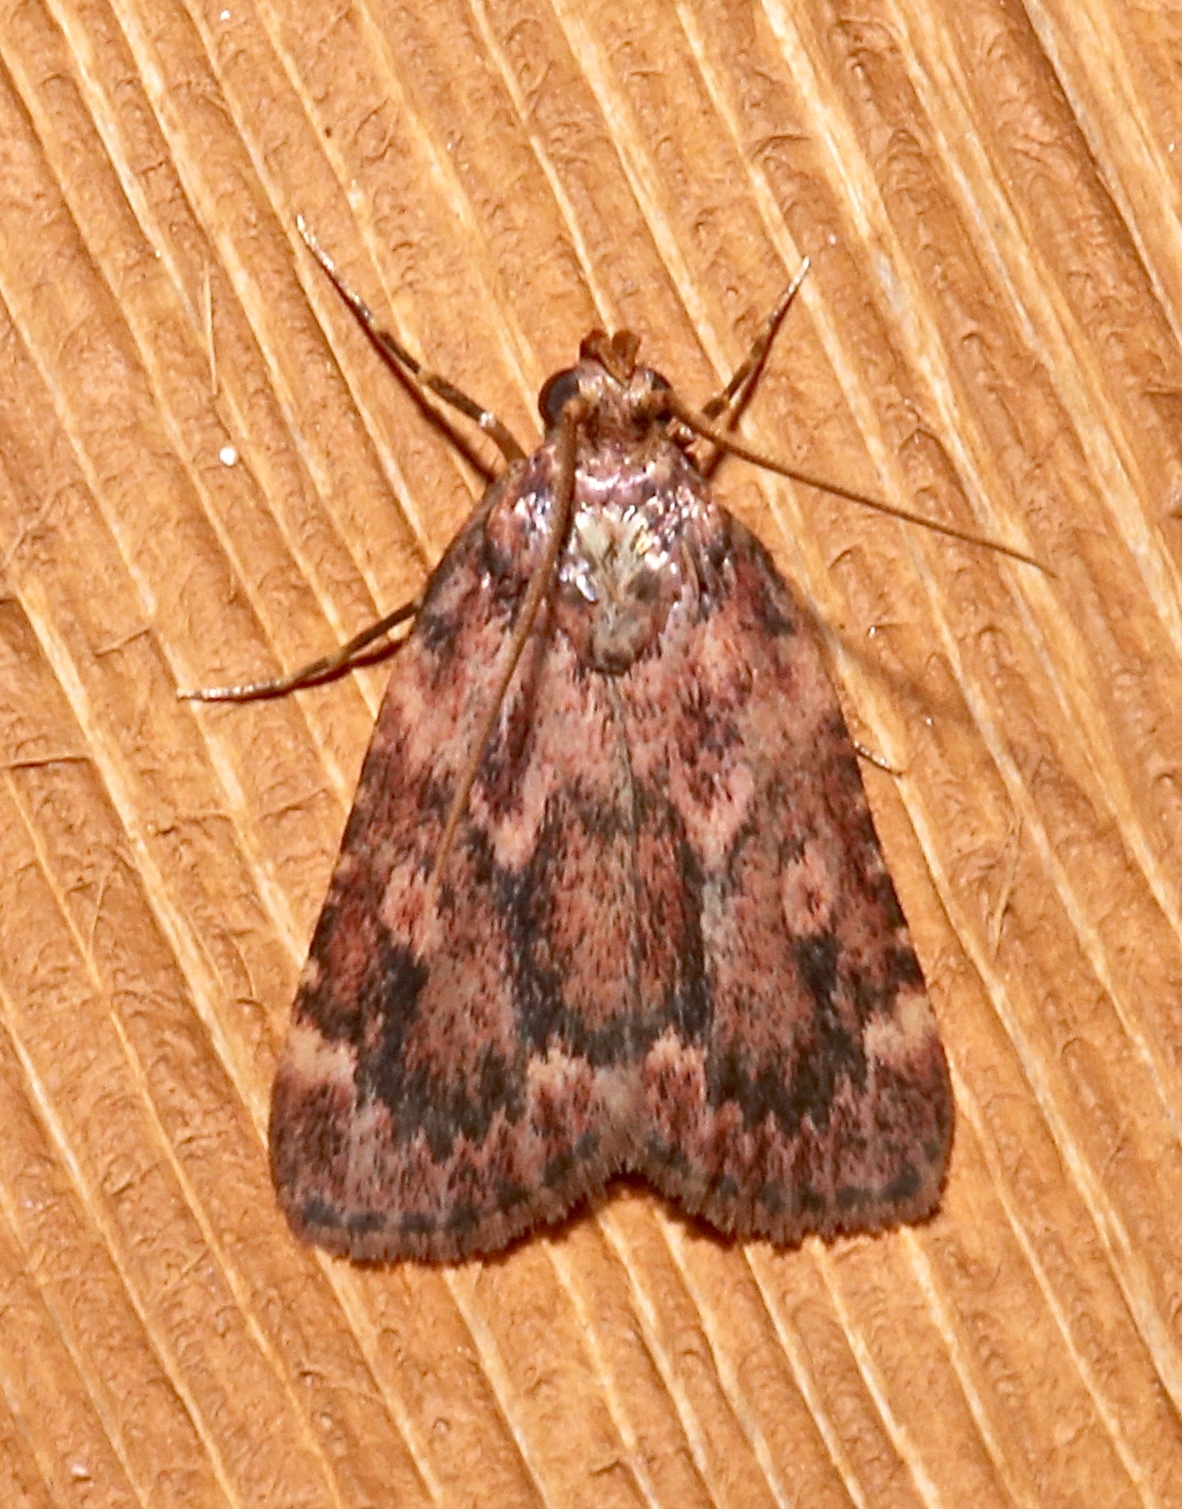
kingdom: Animalia
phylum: Arthropoda
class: Insecta
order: Lepidoptera
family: Pyralidae
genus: Aglossa
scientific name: Aglossa cuprina
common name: Grease moth
